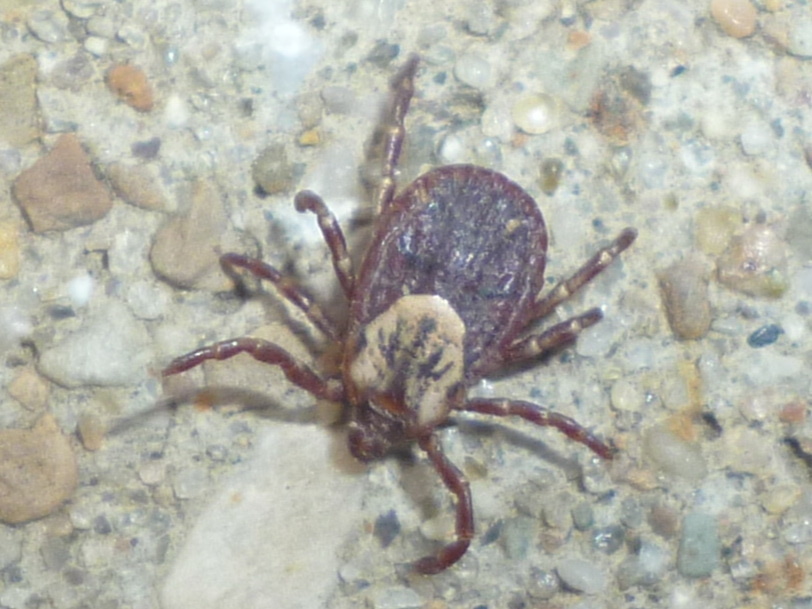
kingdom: Animalia
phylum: Arthropoda
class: Arachnida
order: Ixodida
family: Ixodidae
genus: Dermacentor
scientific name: Dermacentor variabilis
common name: American dog tick
